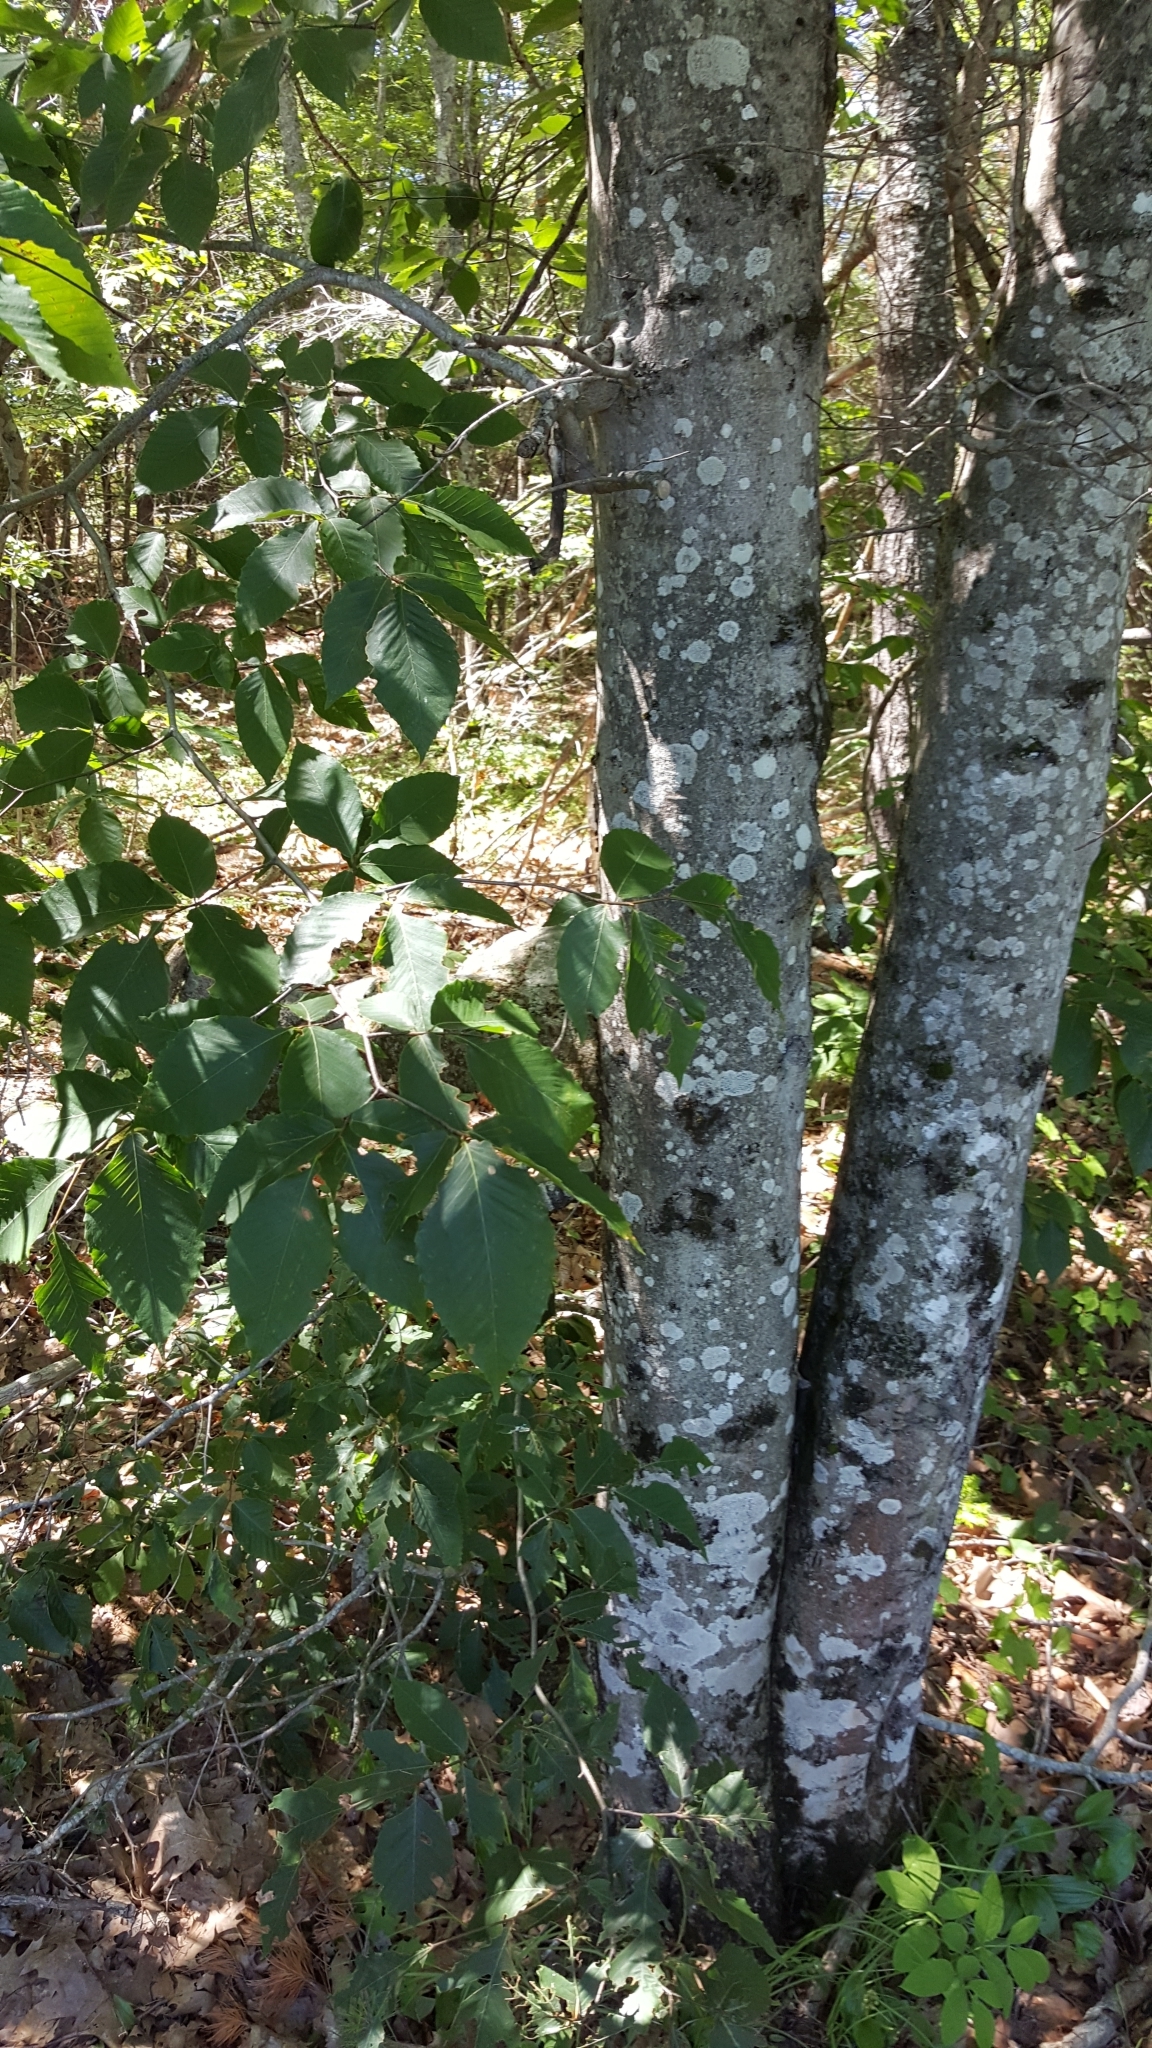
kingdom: Plantae
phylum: Tracheophyta
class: Magnoliopsida
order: Fagales
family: Fagaceae
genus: Fagus
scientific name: Fagus grandifolia
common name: American beech
